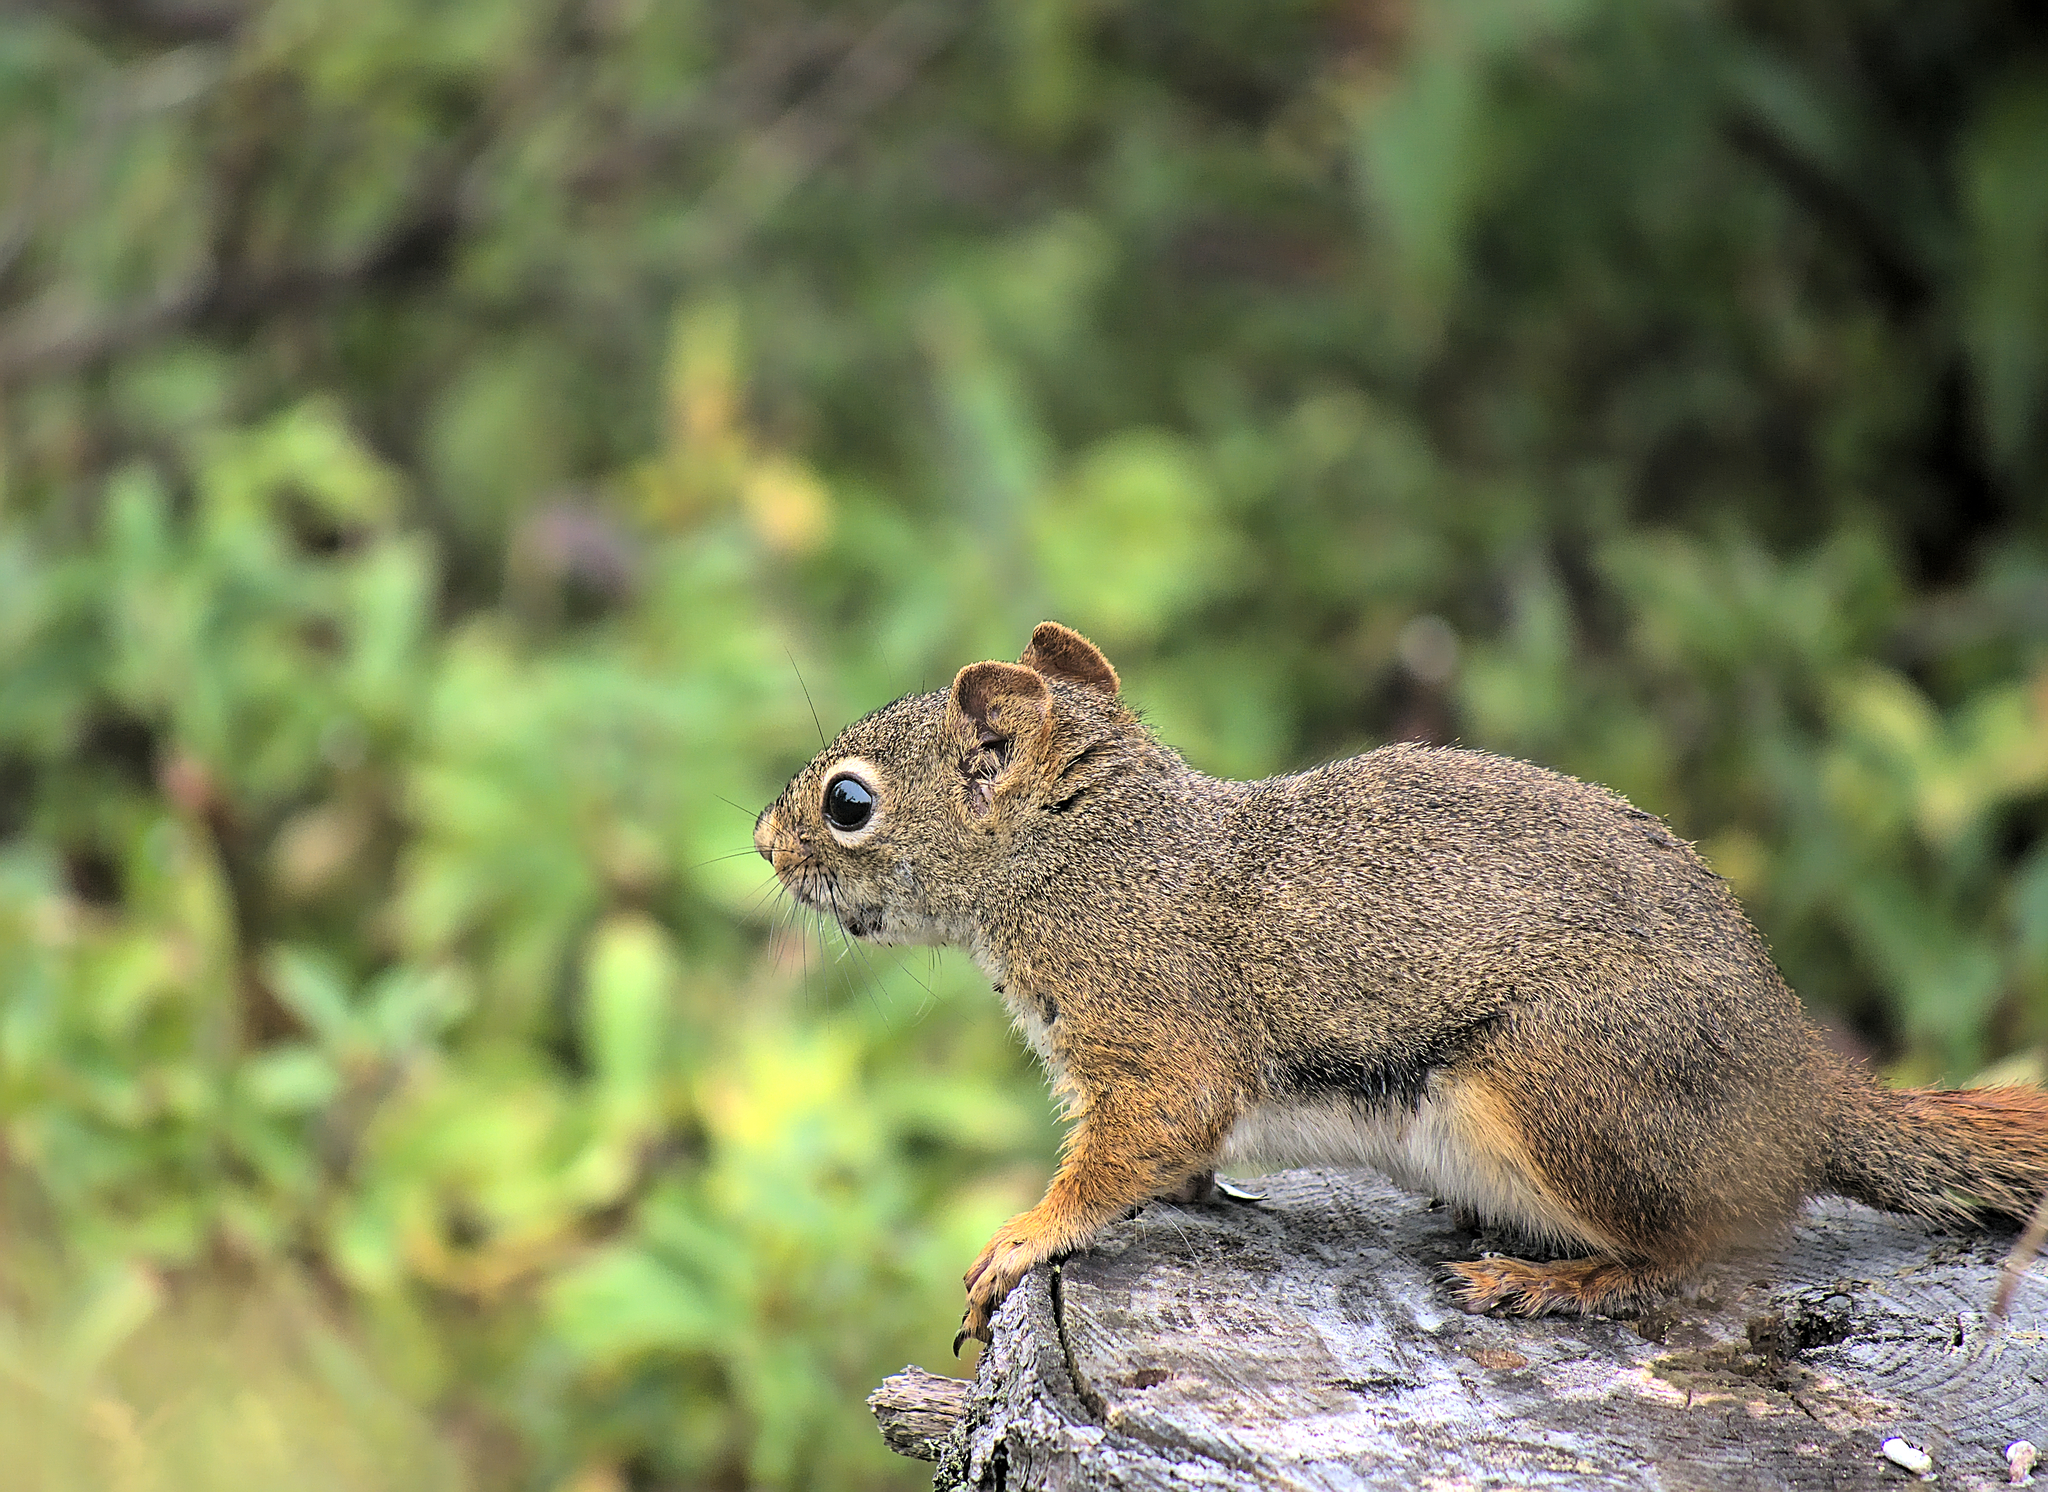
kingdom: Animalia
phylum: Chordata
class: Mammalia
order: Rodentia
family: Sciuridae
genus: Tamiasciurus
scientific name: Tamiasciurus hudsonicus
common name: Red squirrel
